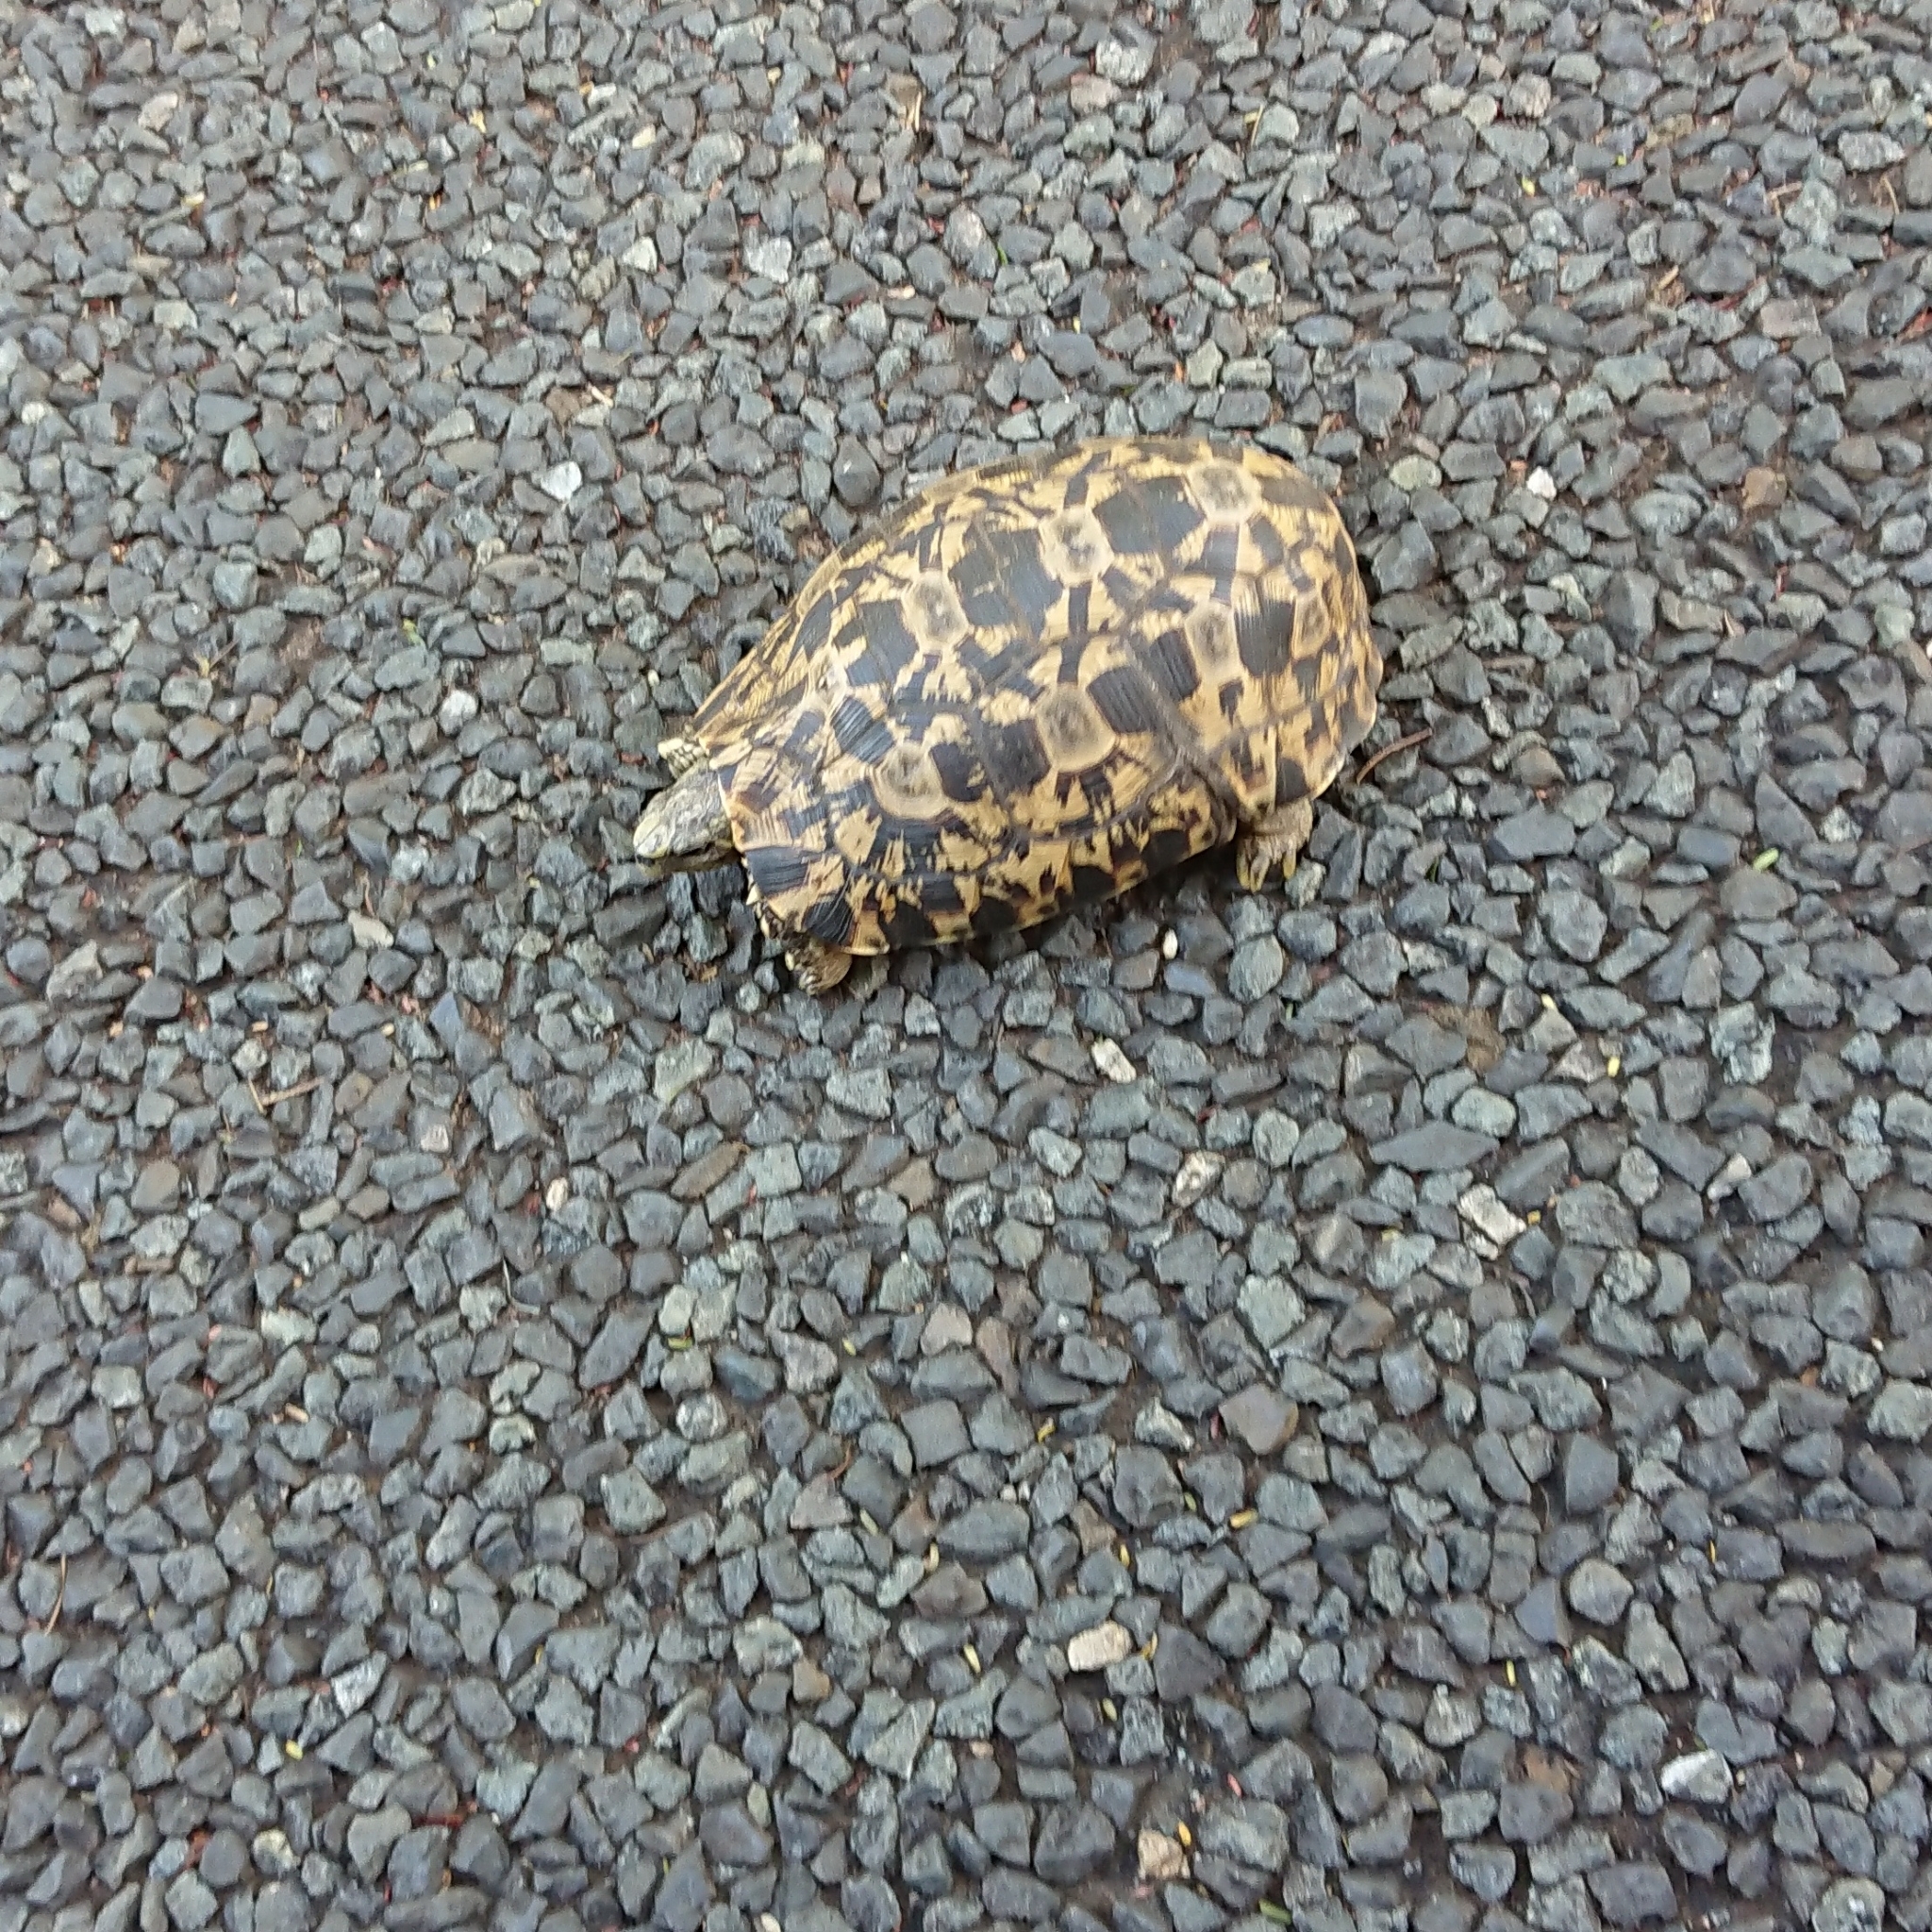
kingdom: Animalia
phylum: Chordata
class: Testudines
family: Testudinidae
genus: Kinixys
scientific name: Kinixys zombensis
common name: Southeastern hinge-back tortoise
